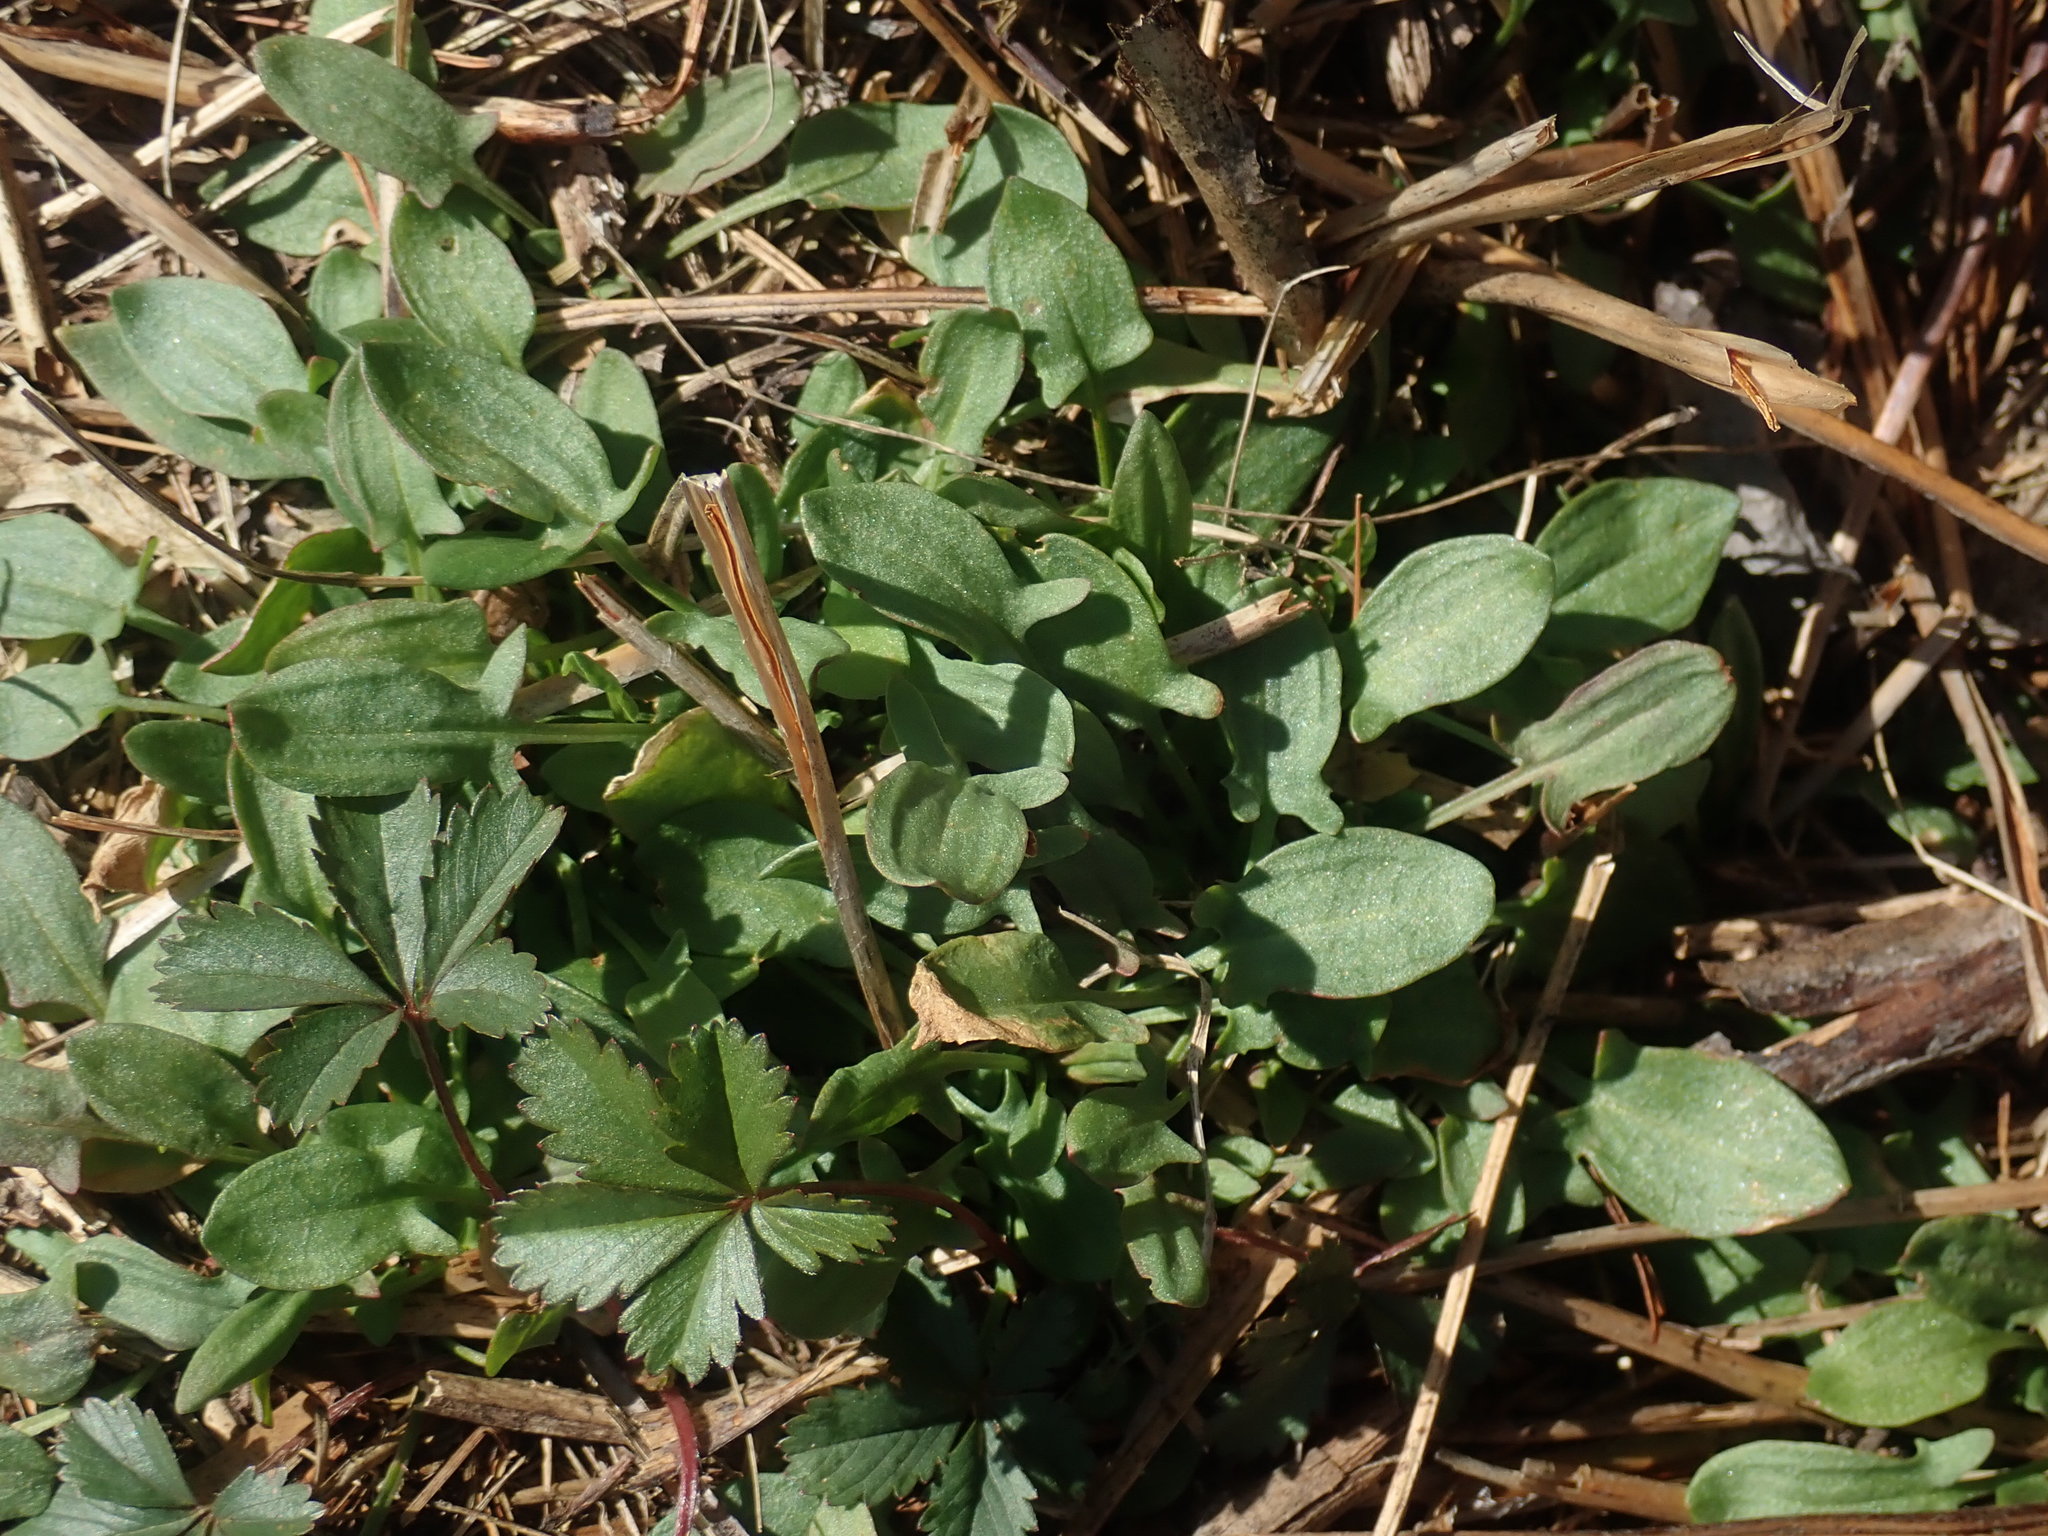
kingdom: Plantae
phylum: Tracheophyta
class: Magnoliopsida
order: Caryophyllales
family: Polygonaceae
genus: Rumex
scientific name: Rumex acetosella
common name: Common sheep sorrel
